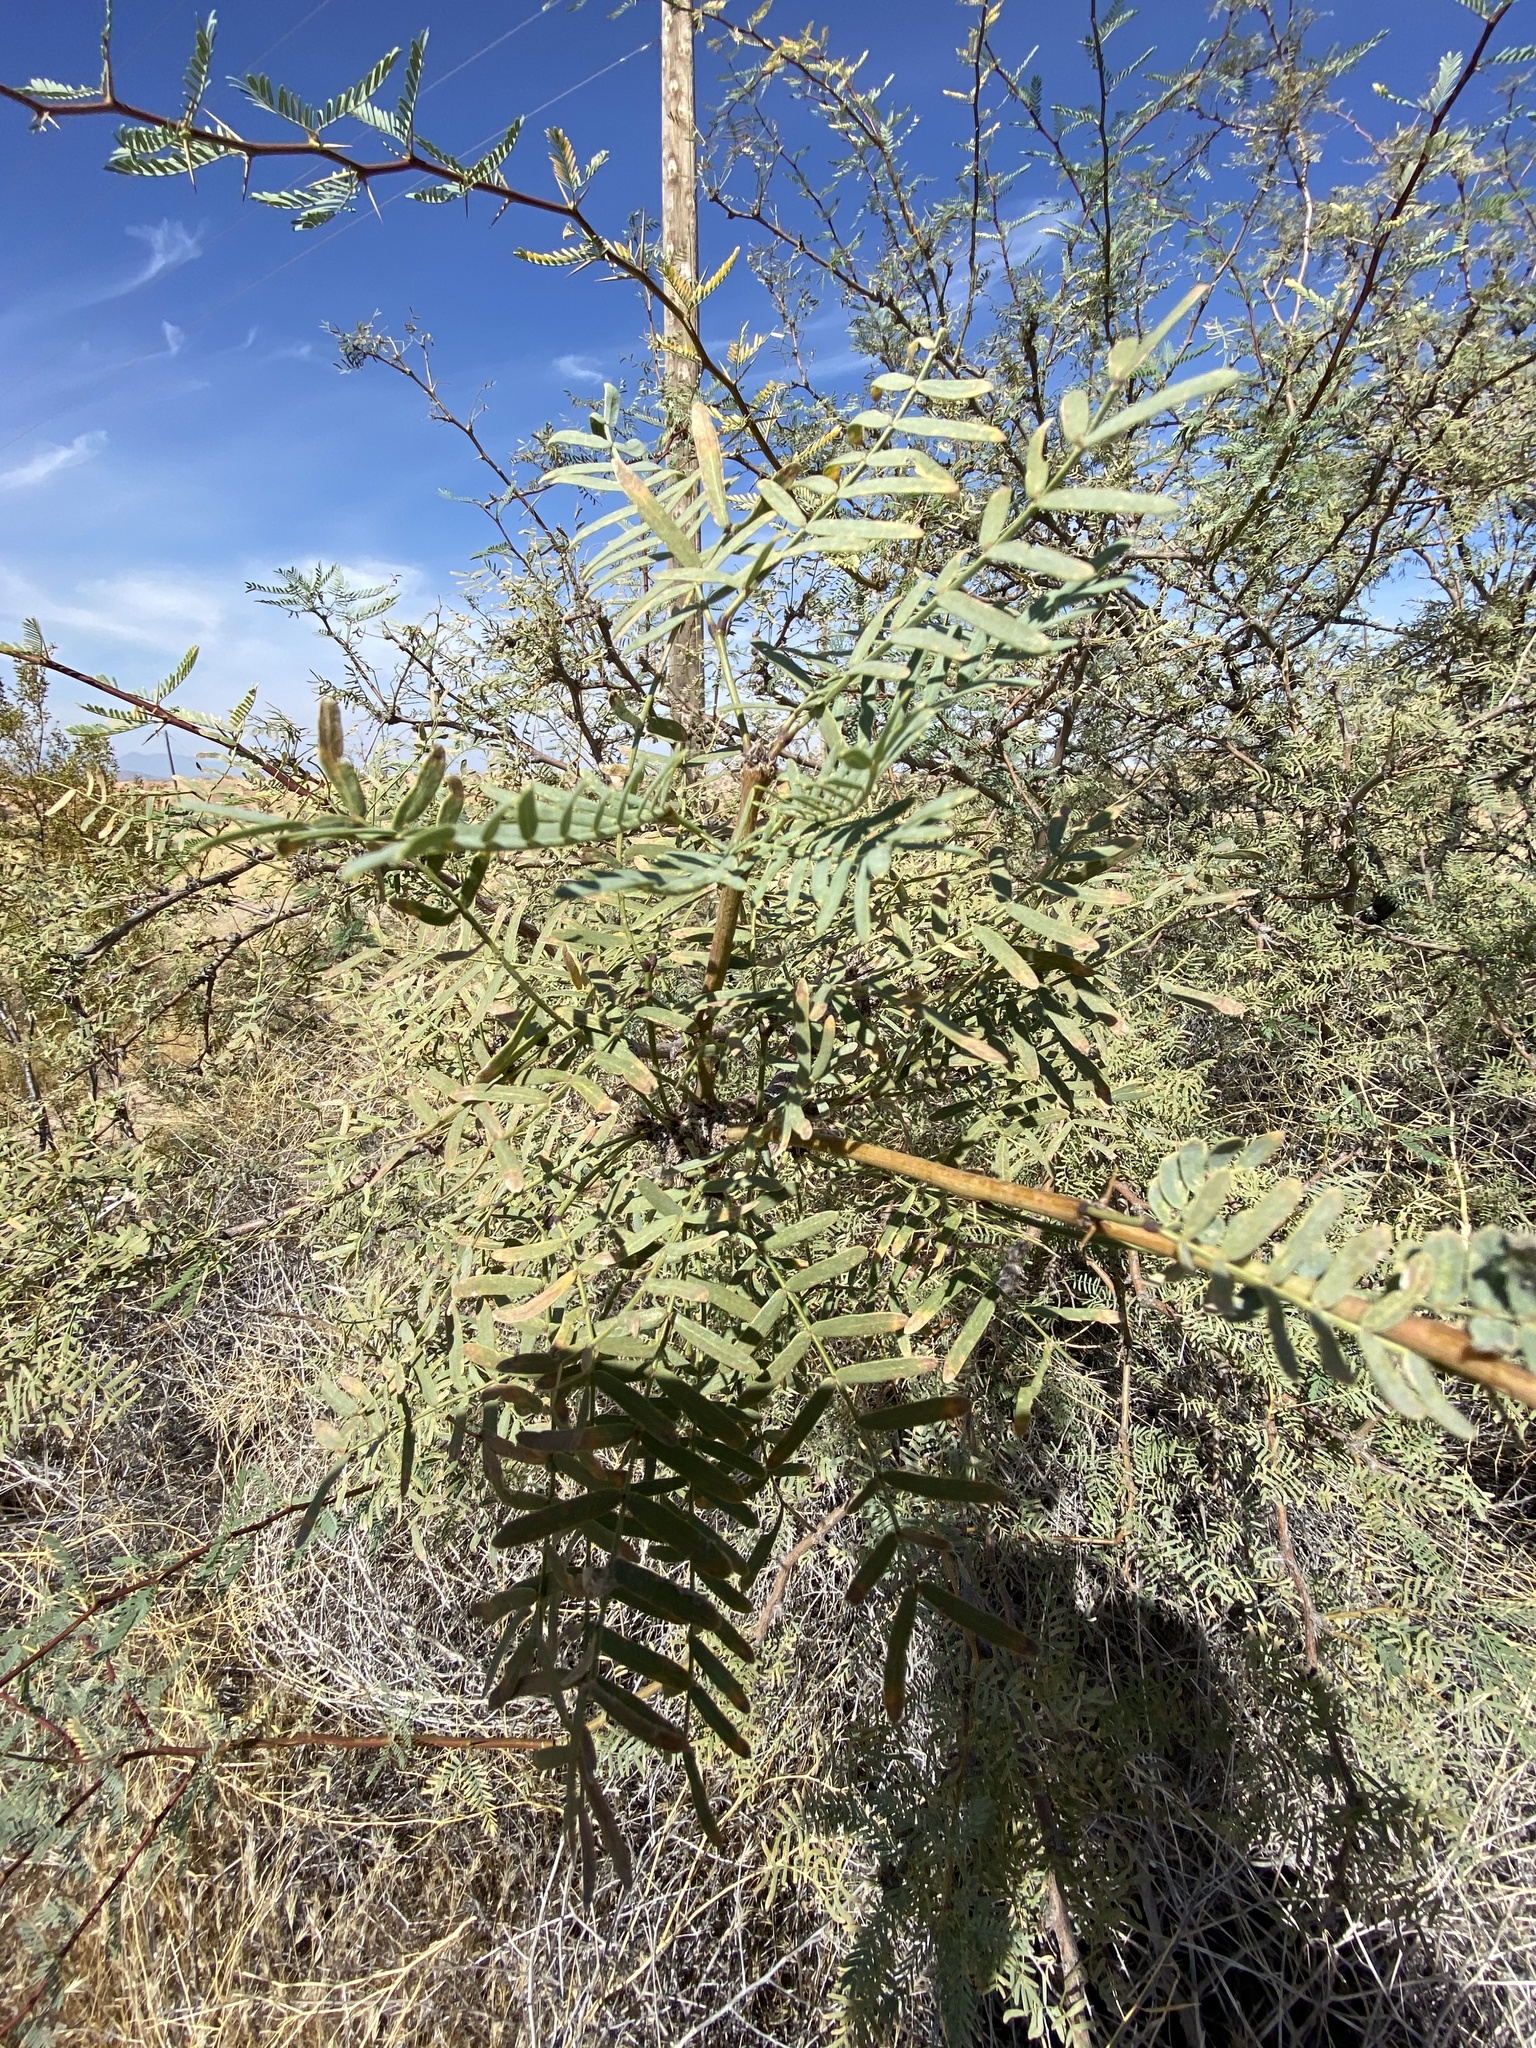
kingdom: Plantae
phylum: Tracheophyta
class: Magnoliopsida
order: Fabales
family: Fabaceae
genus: Prosopis
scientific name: Prosopis
